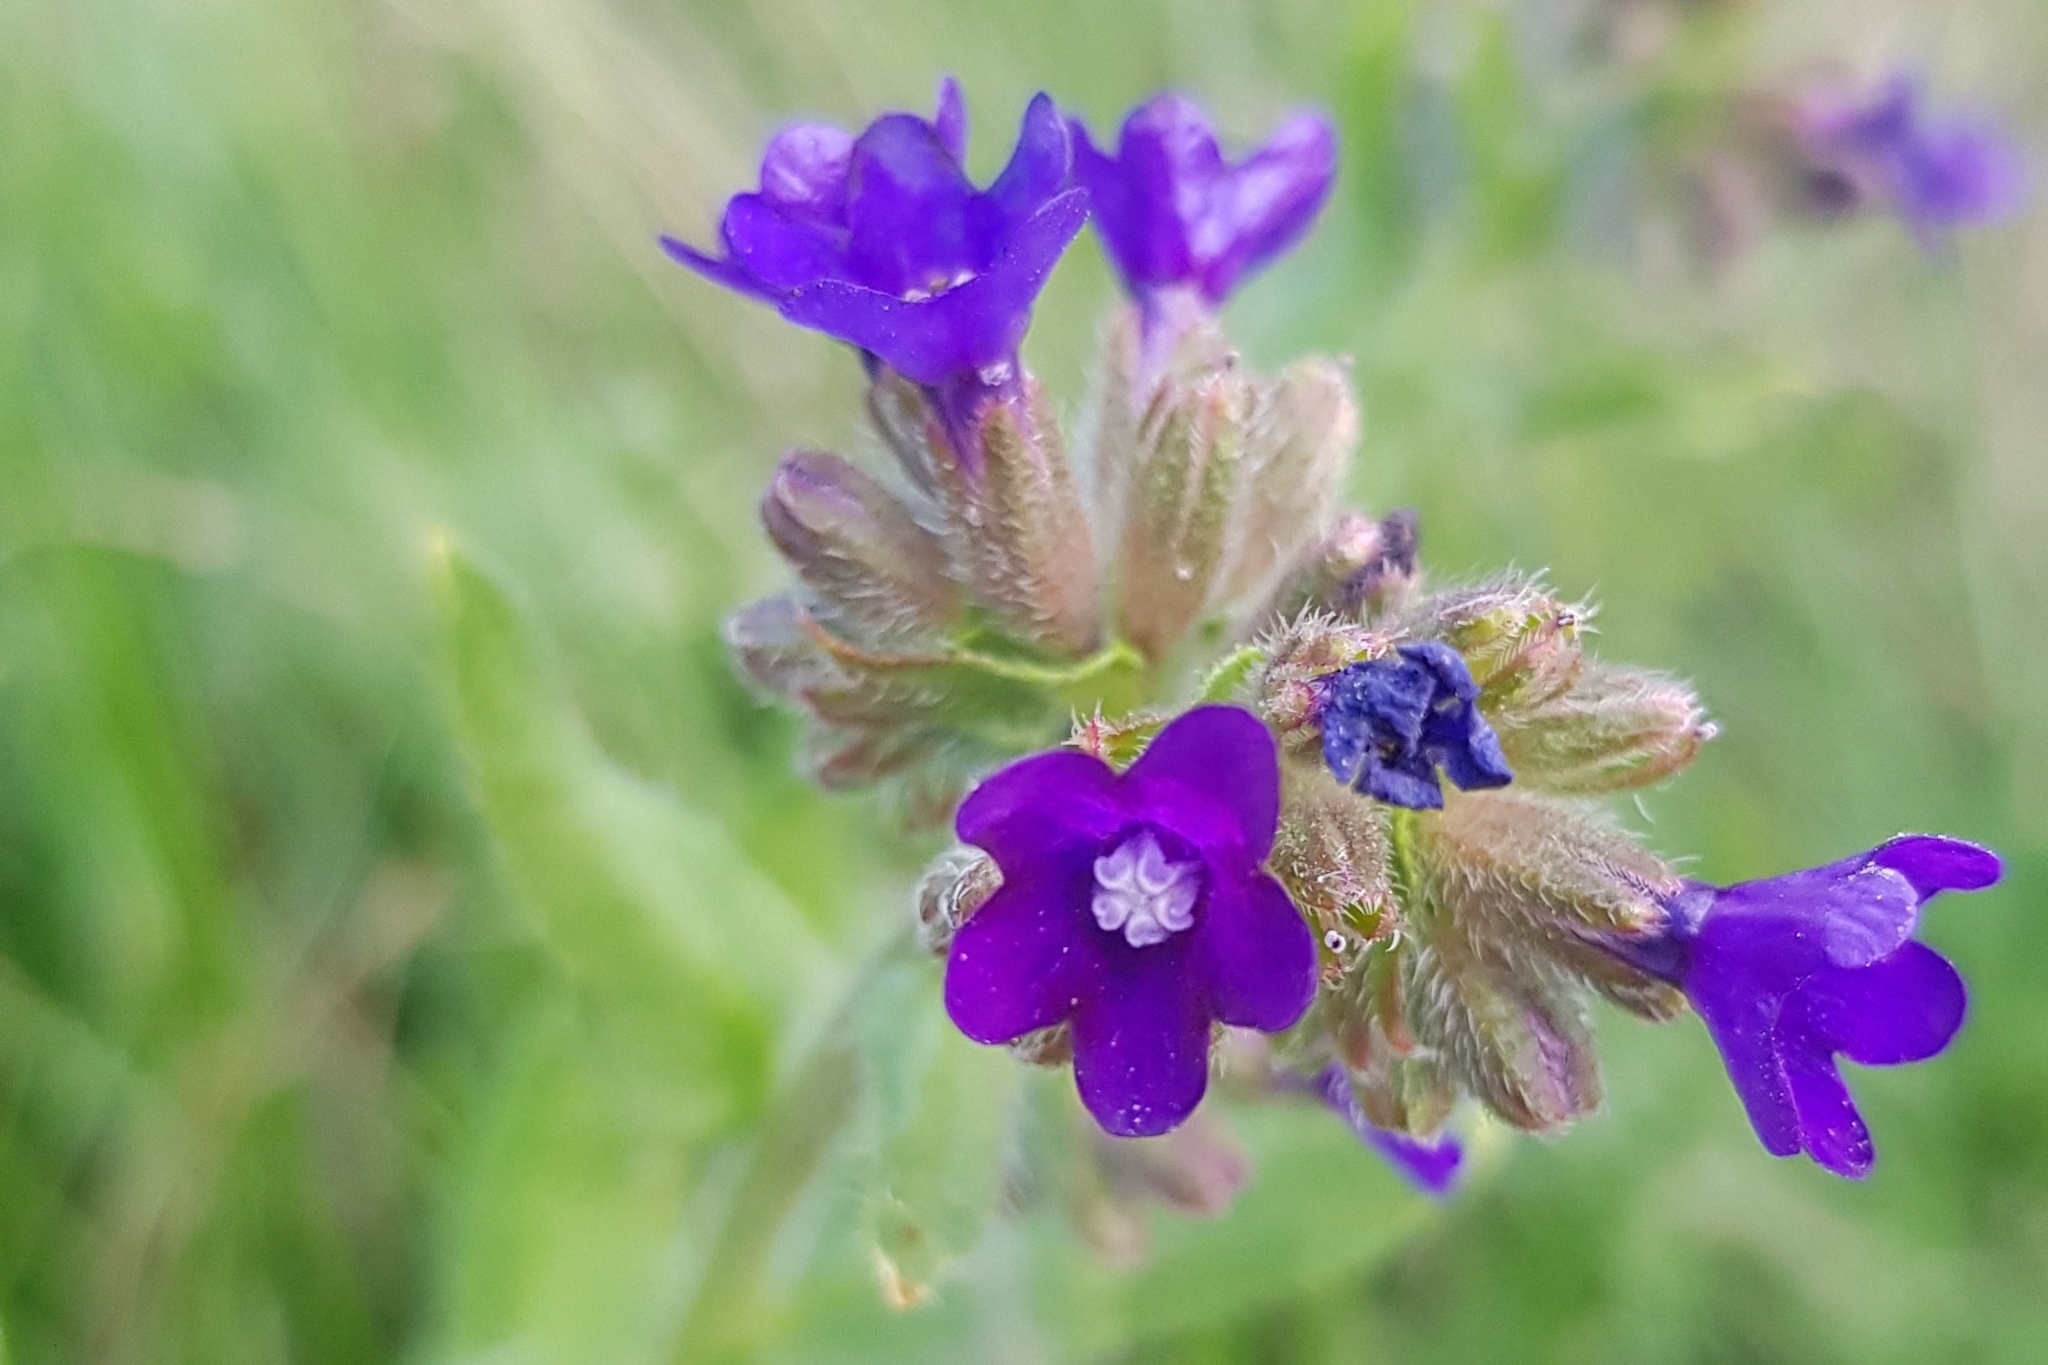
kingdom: Plantae
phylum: Tracheophyta
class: Magnoliopsida
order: Boraginales
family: Boraginaceae
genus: Anchusa
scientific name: Anchusa officinalis
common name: Alkanet
